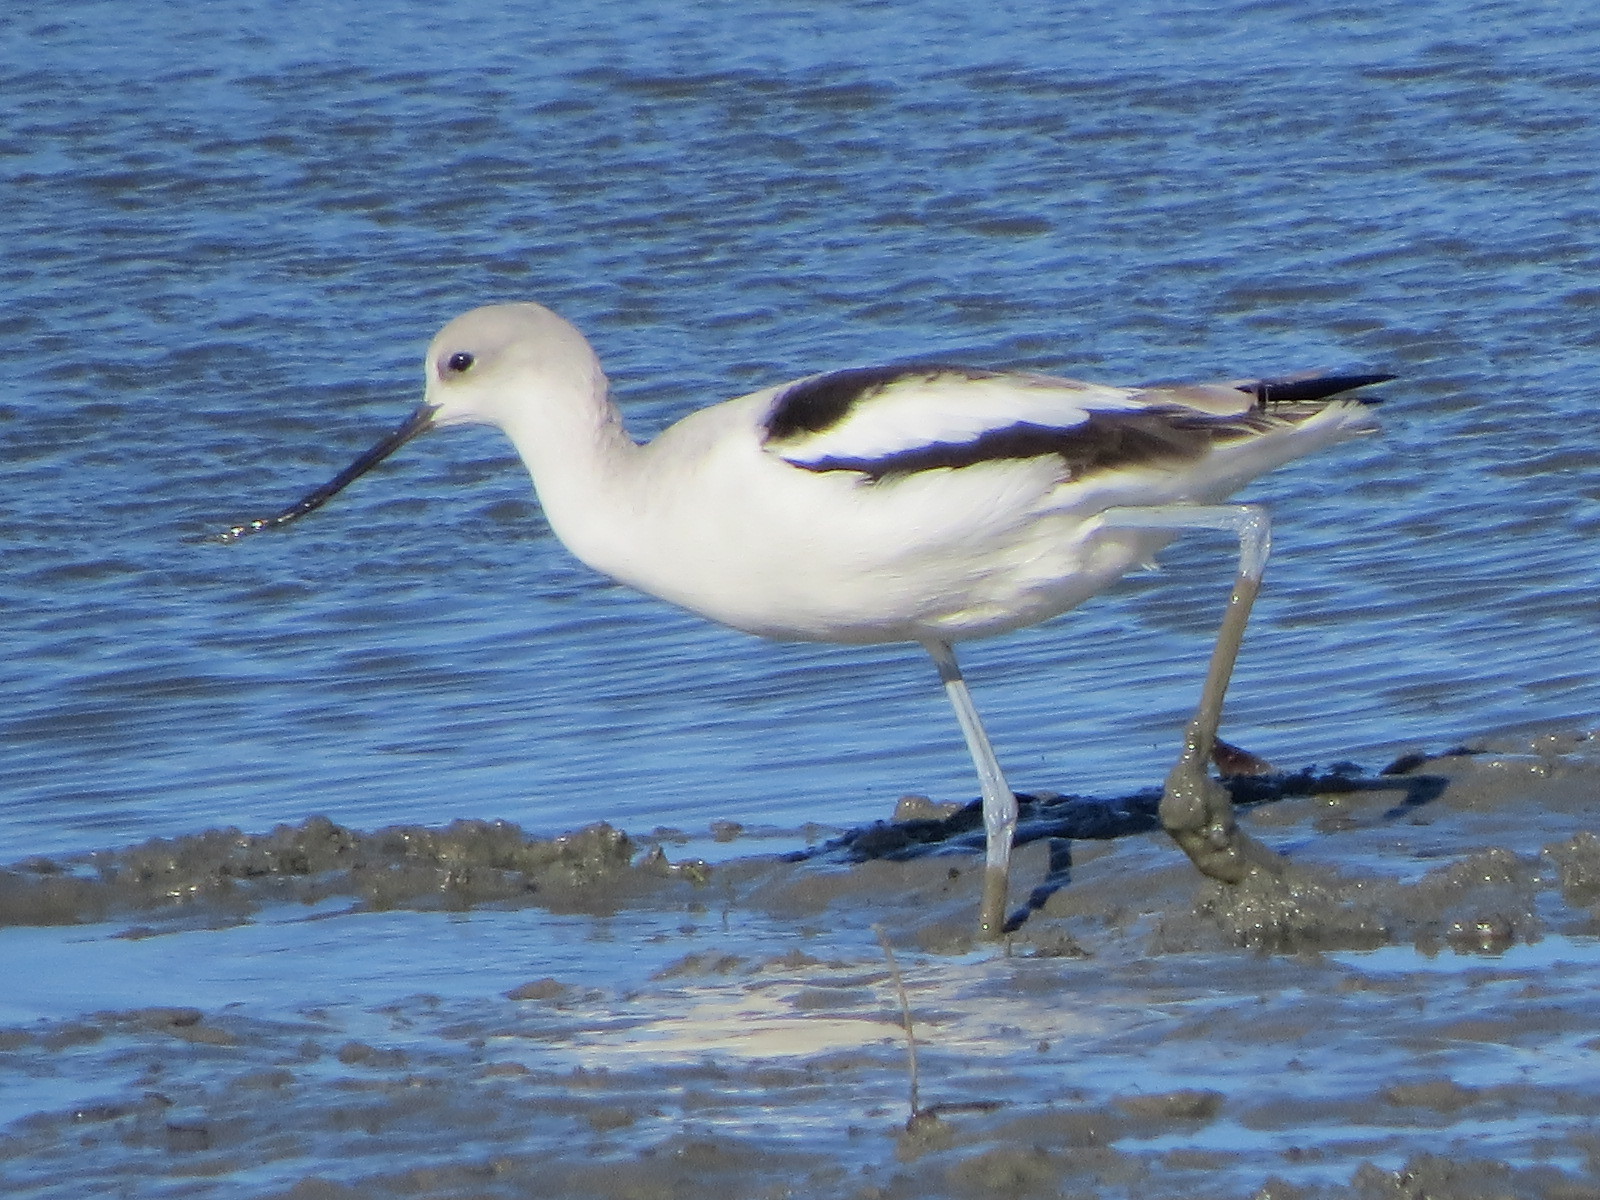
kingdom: Animalia
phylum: Chordata
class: Aves
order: Charadriiformes
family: Recurvirostridae
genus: Recurvirostra
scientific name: Recurvirostra americana
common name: American avocet
